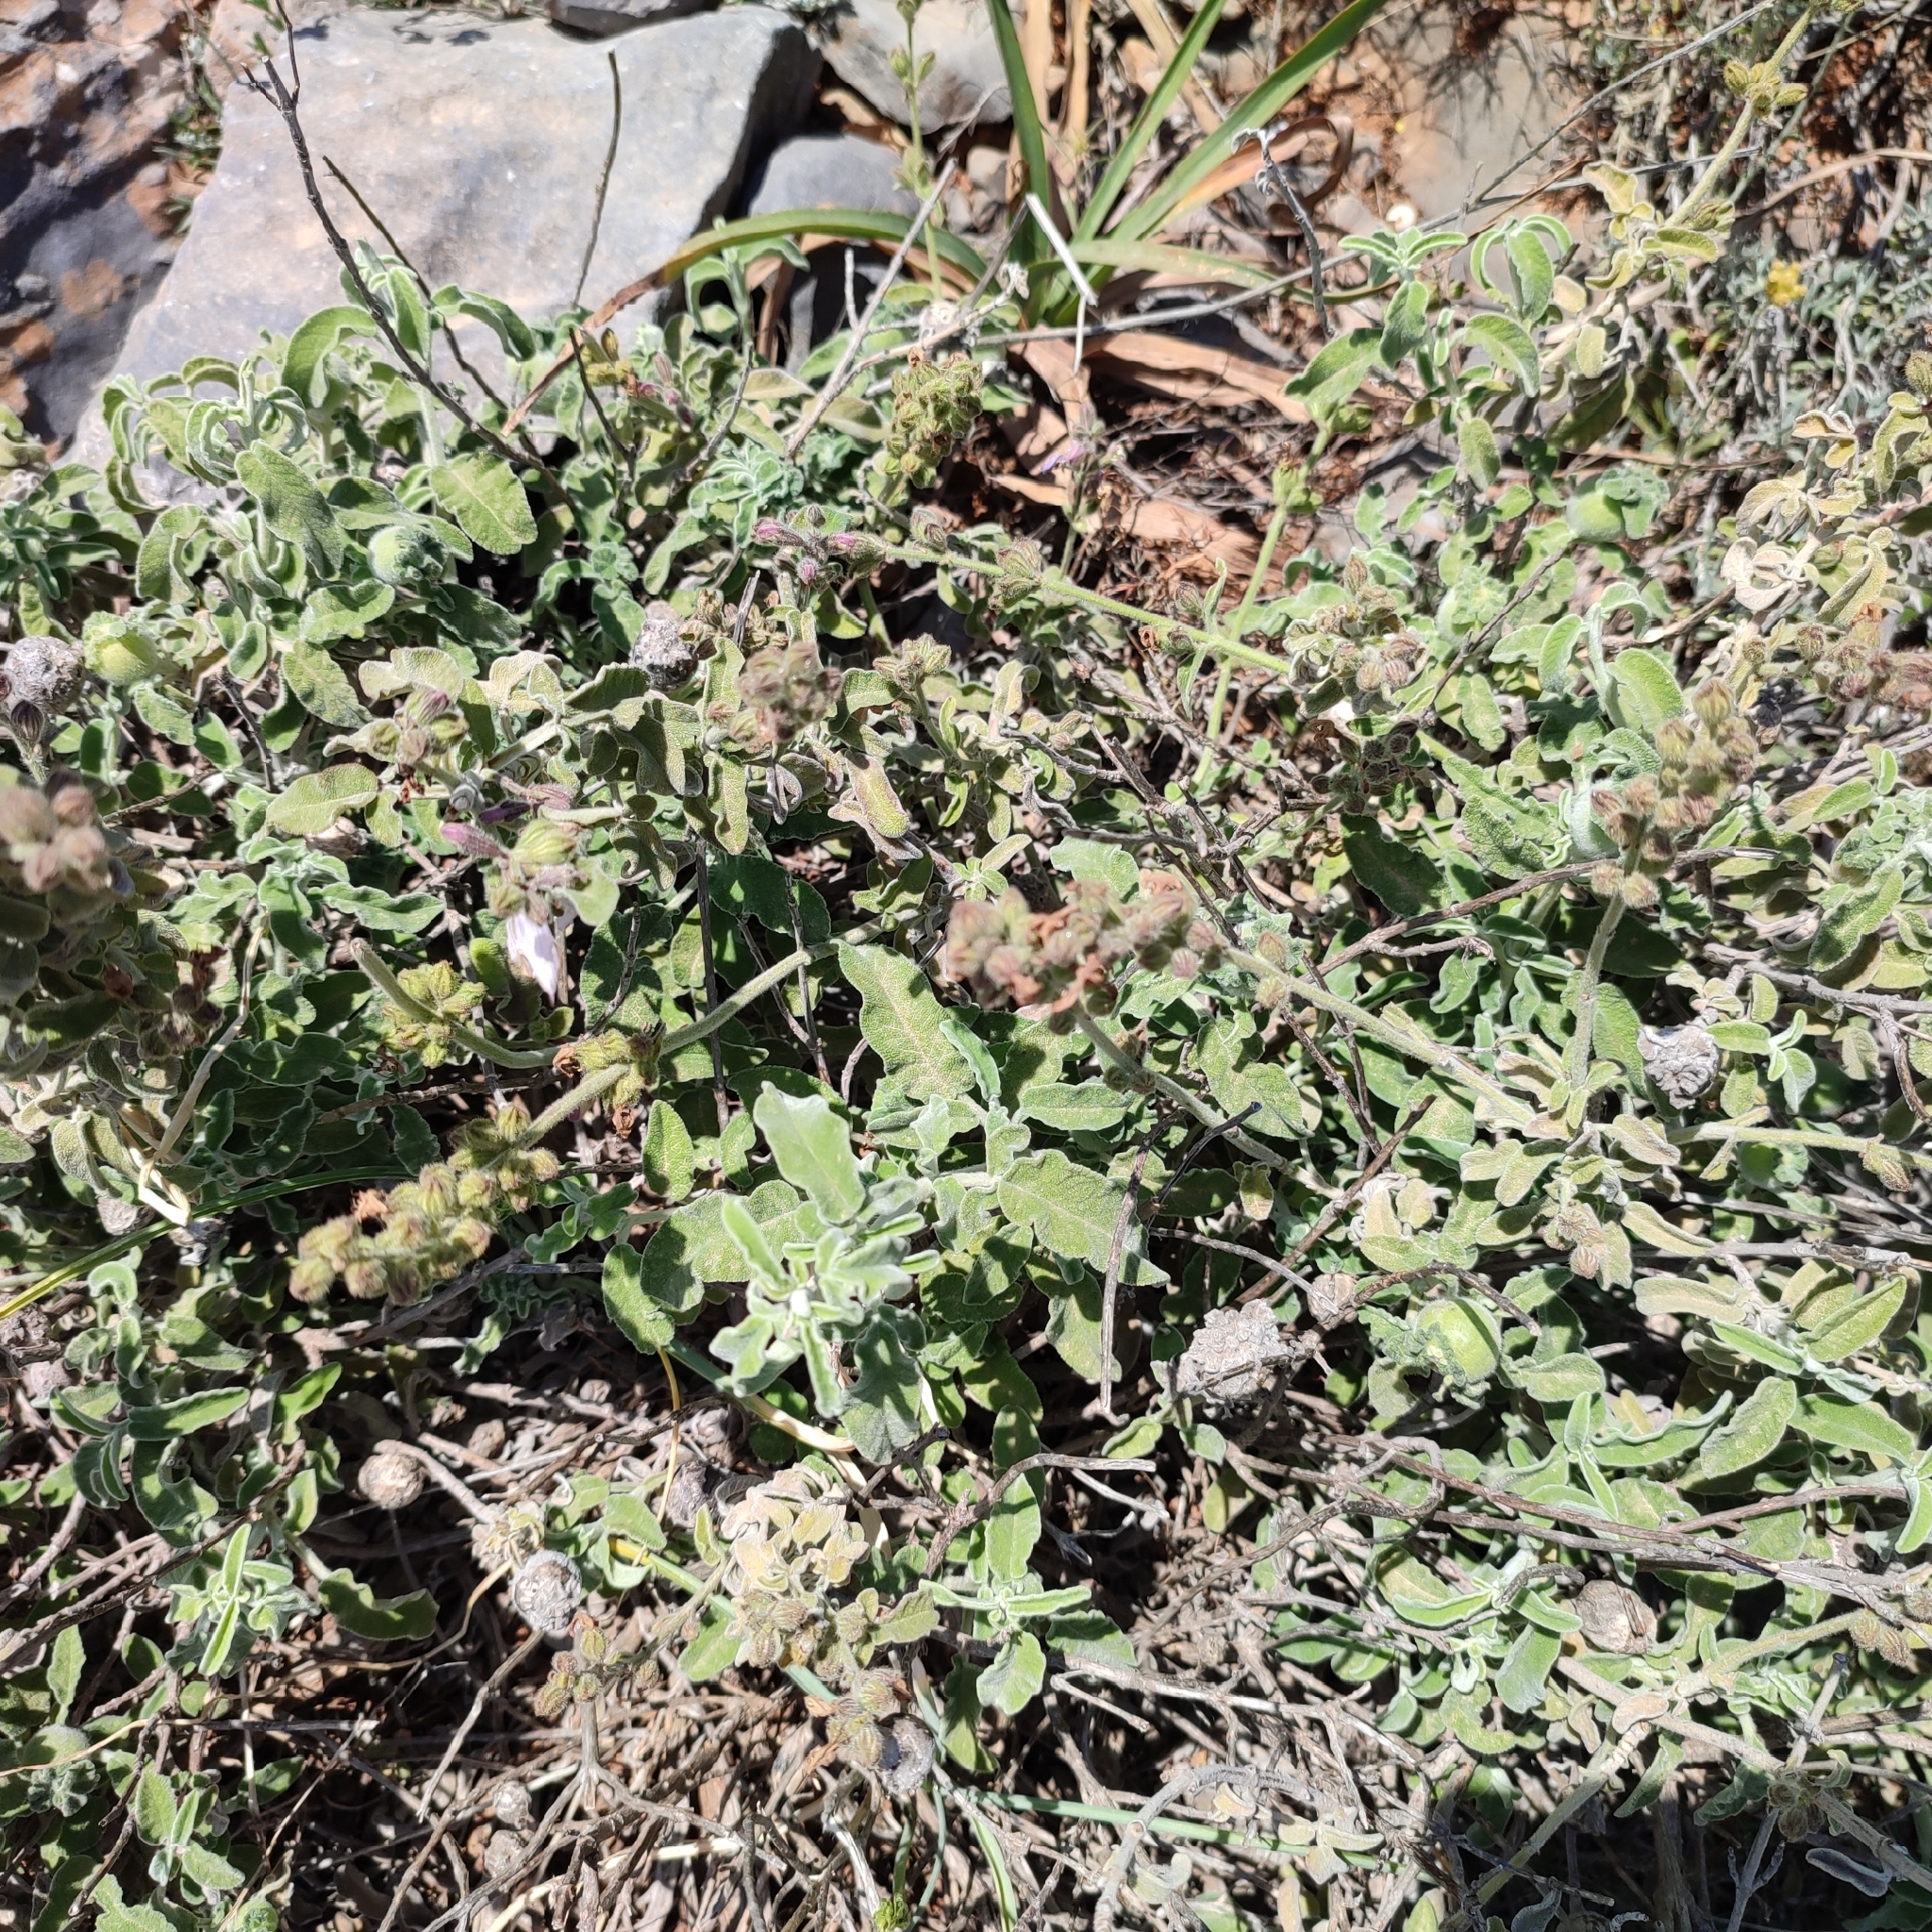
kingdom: Plantae
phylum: Tracheophyta
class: Magnoliopsida
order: Lamiales
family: Lamiaceae
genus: Salvia
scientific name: Salvia fruticosa
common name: Greek sage
